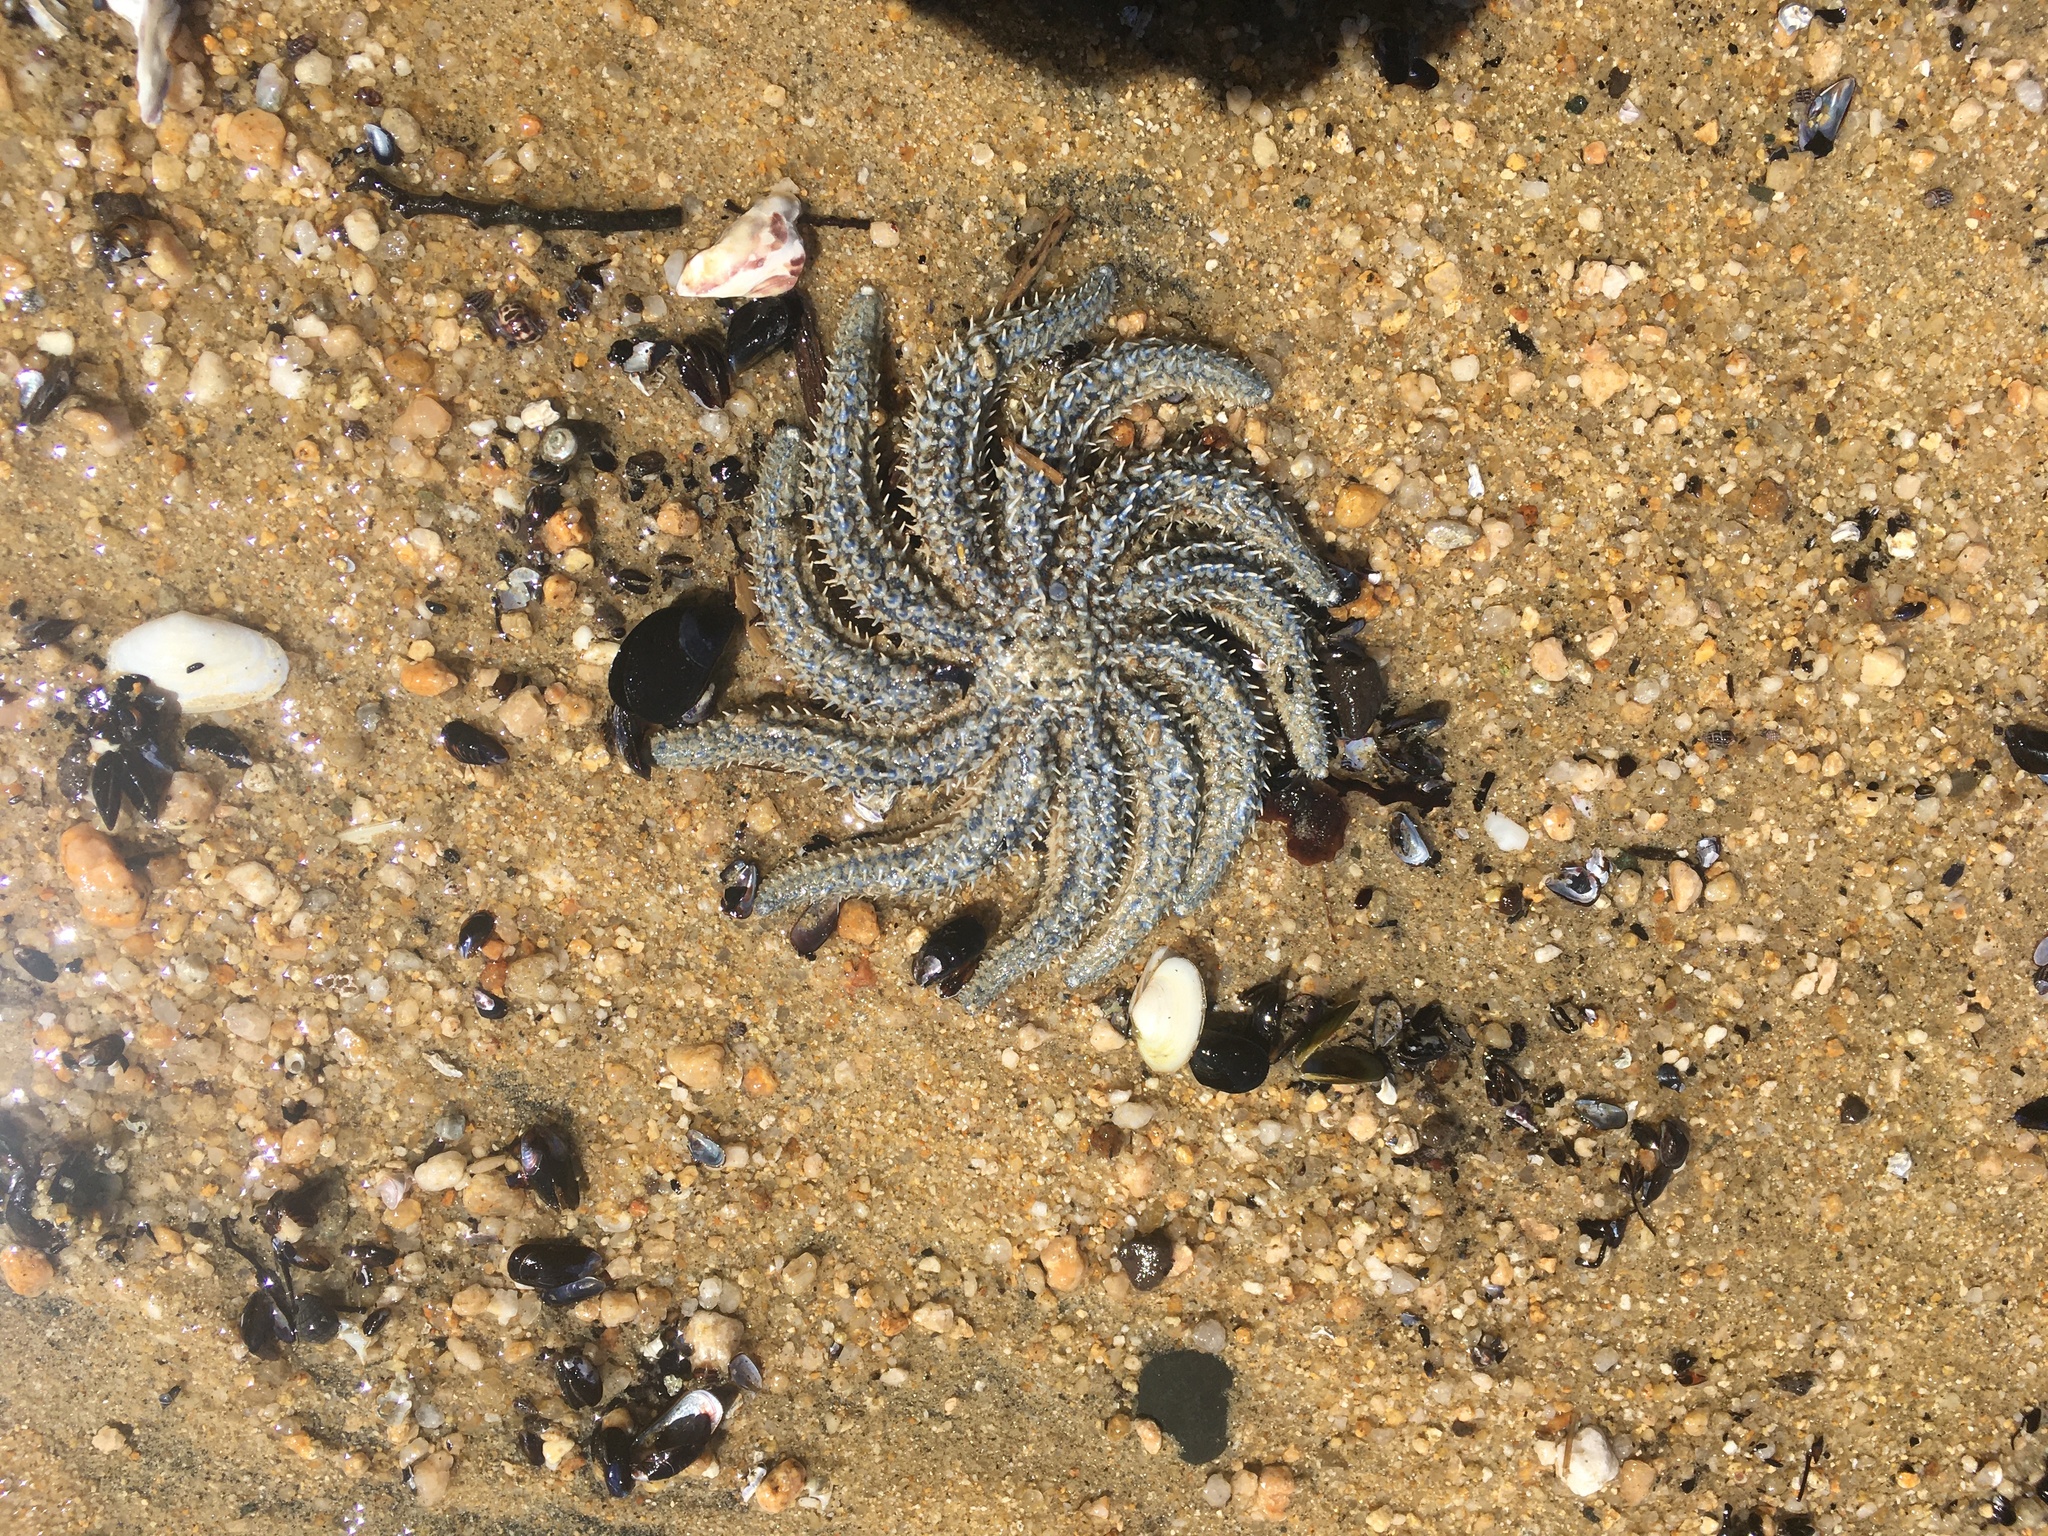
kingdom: Animalia
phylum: Echinodermata
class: Asteroidea
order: Forcipulatida
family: Asteriidae
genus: Coscinasterias
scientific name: Coscinasterias muricata
